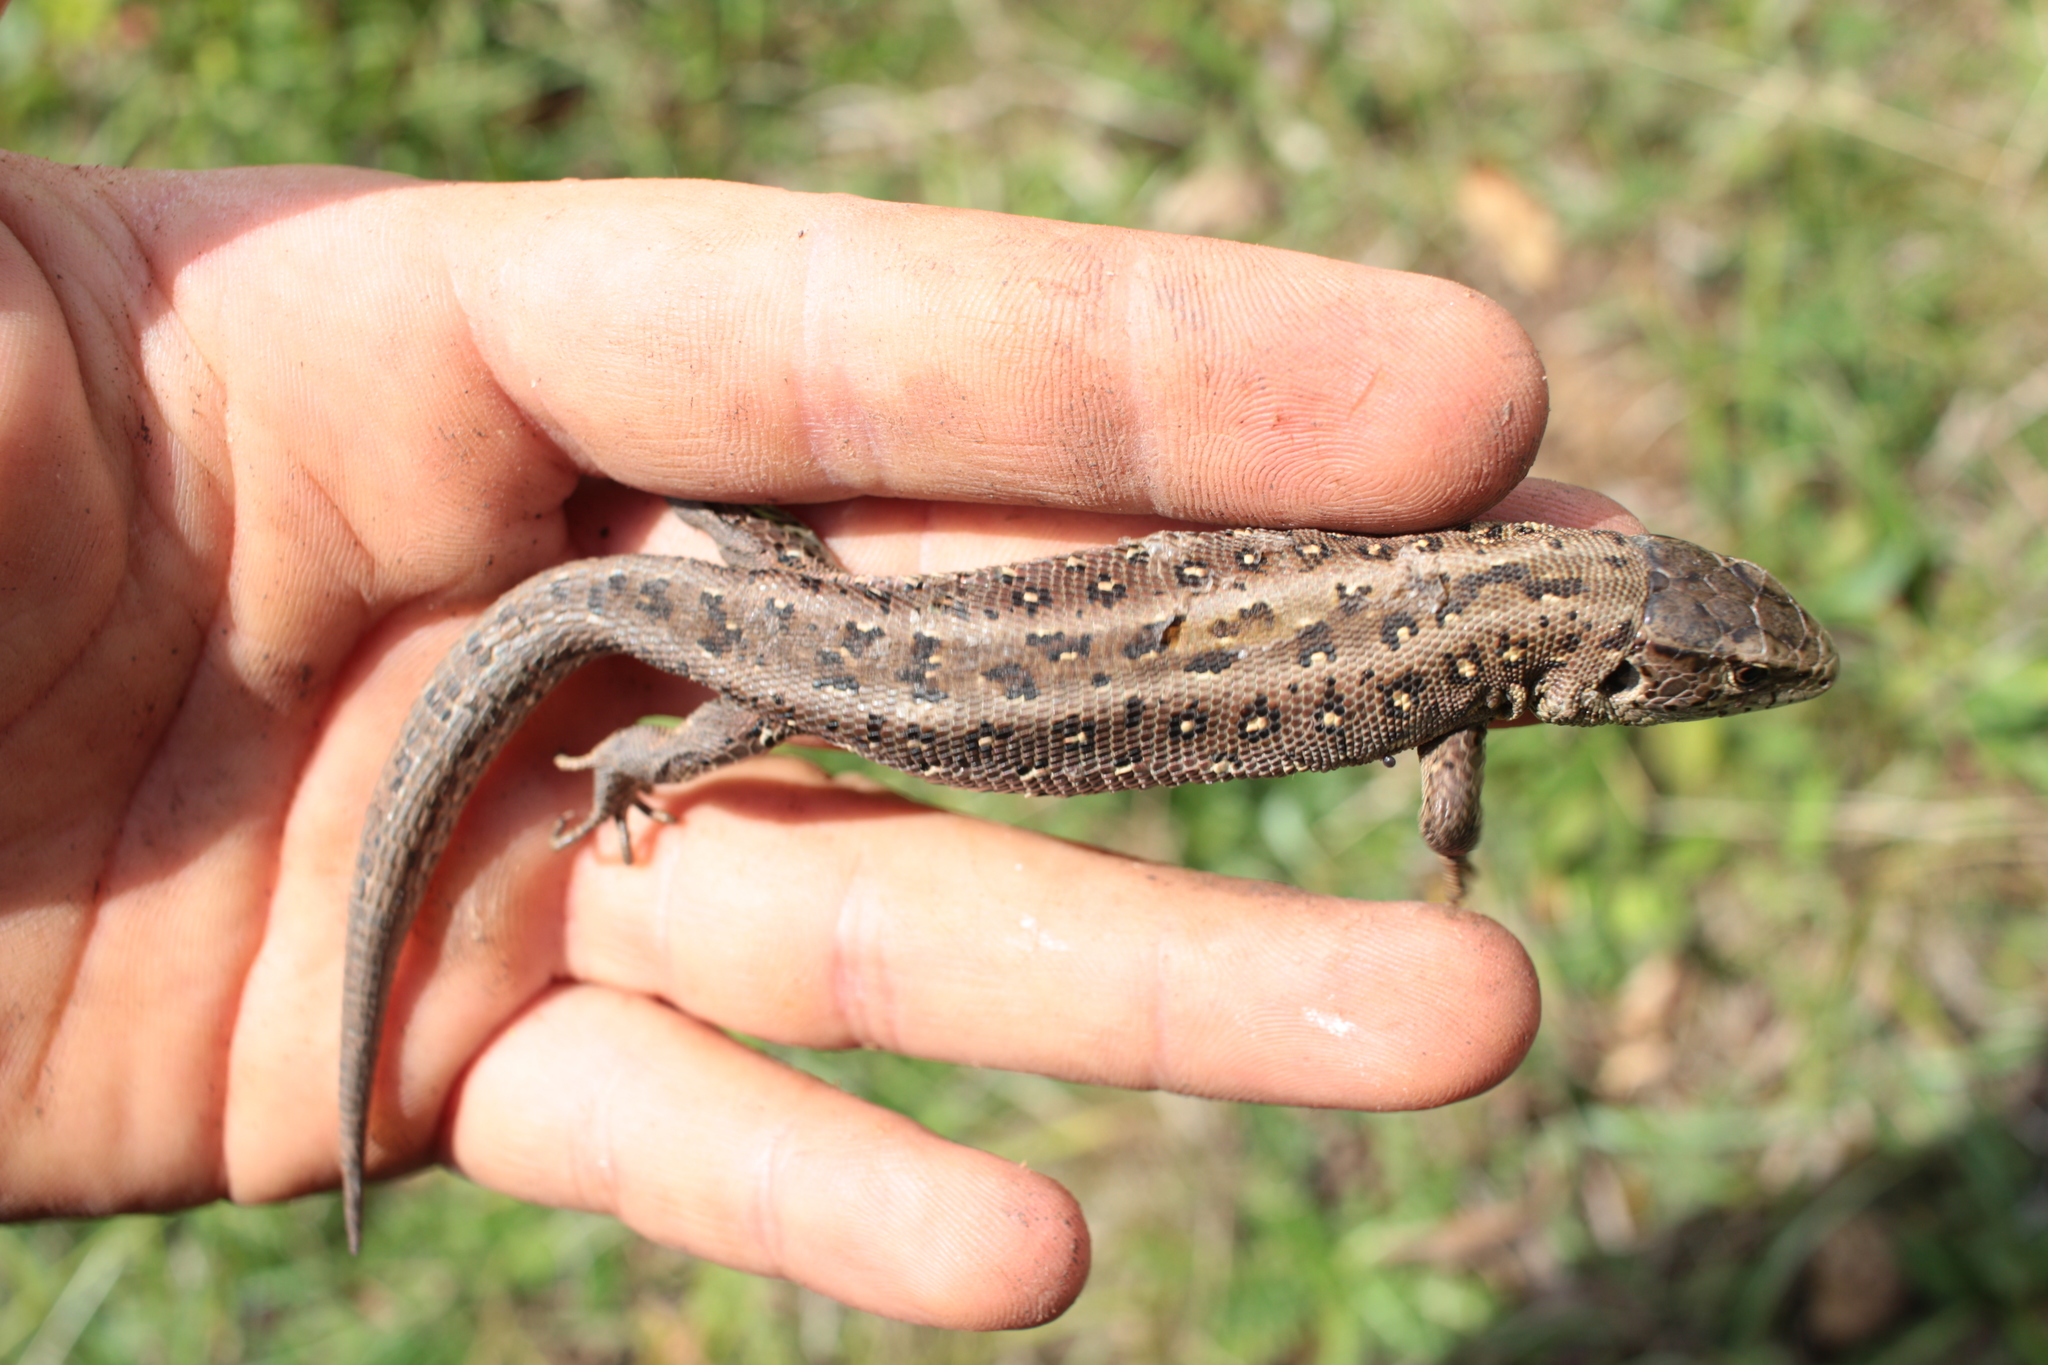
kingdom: Animalia
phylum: Chordata
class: Squamata
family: Lacertidae
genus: Lacerta
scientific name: Lacerta agilis
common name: Sand lizard
